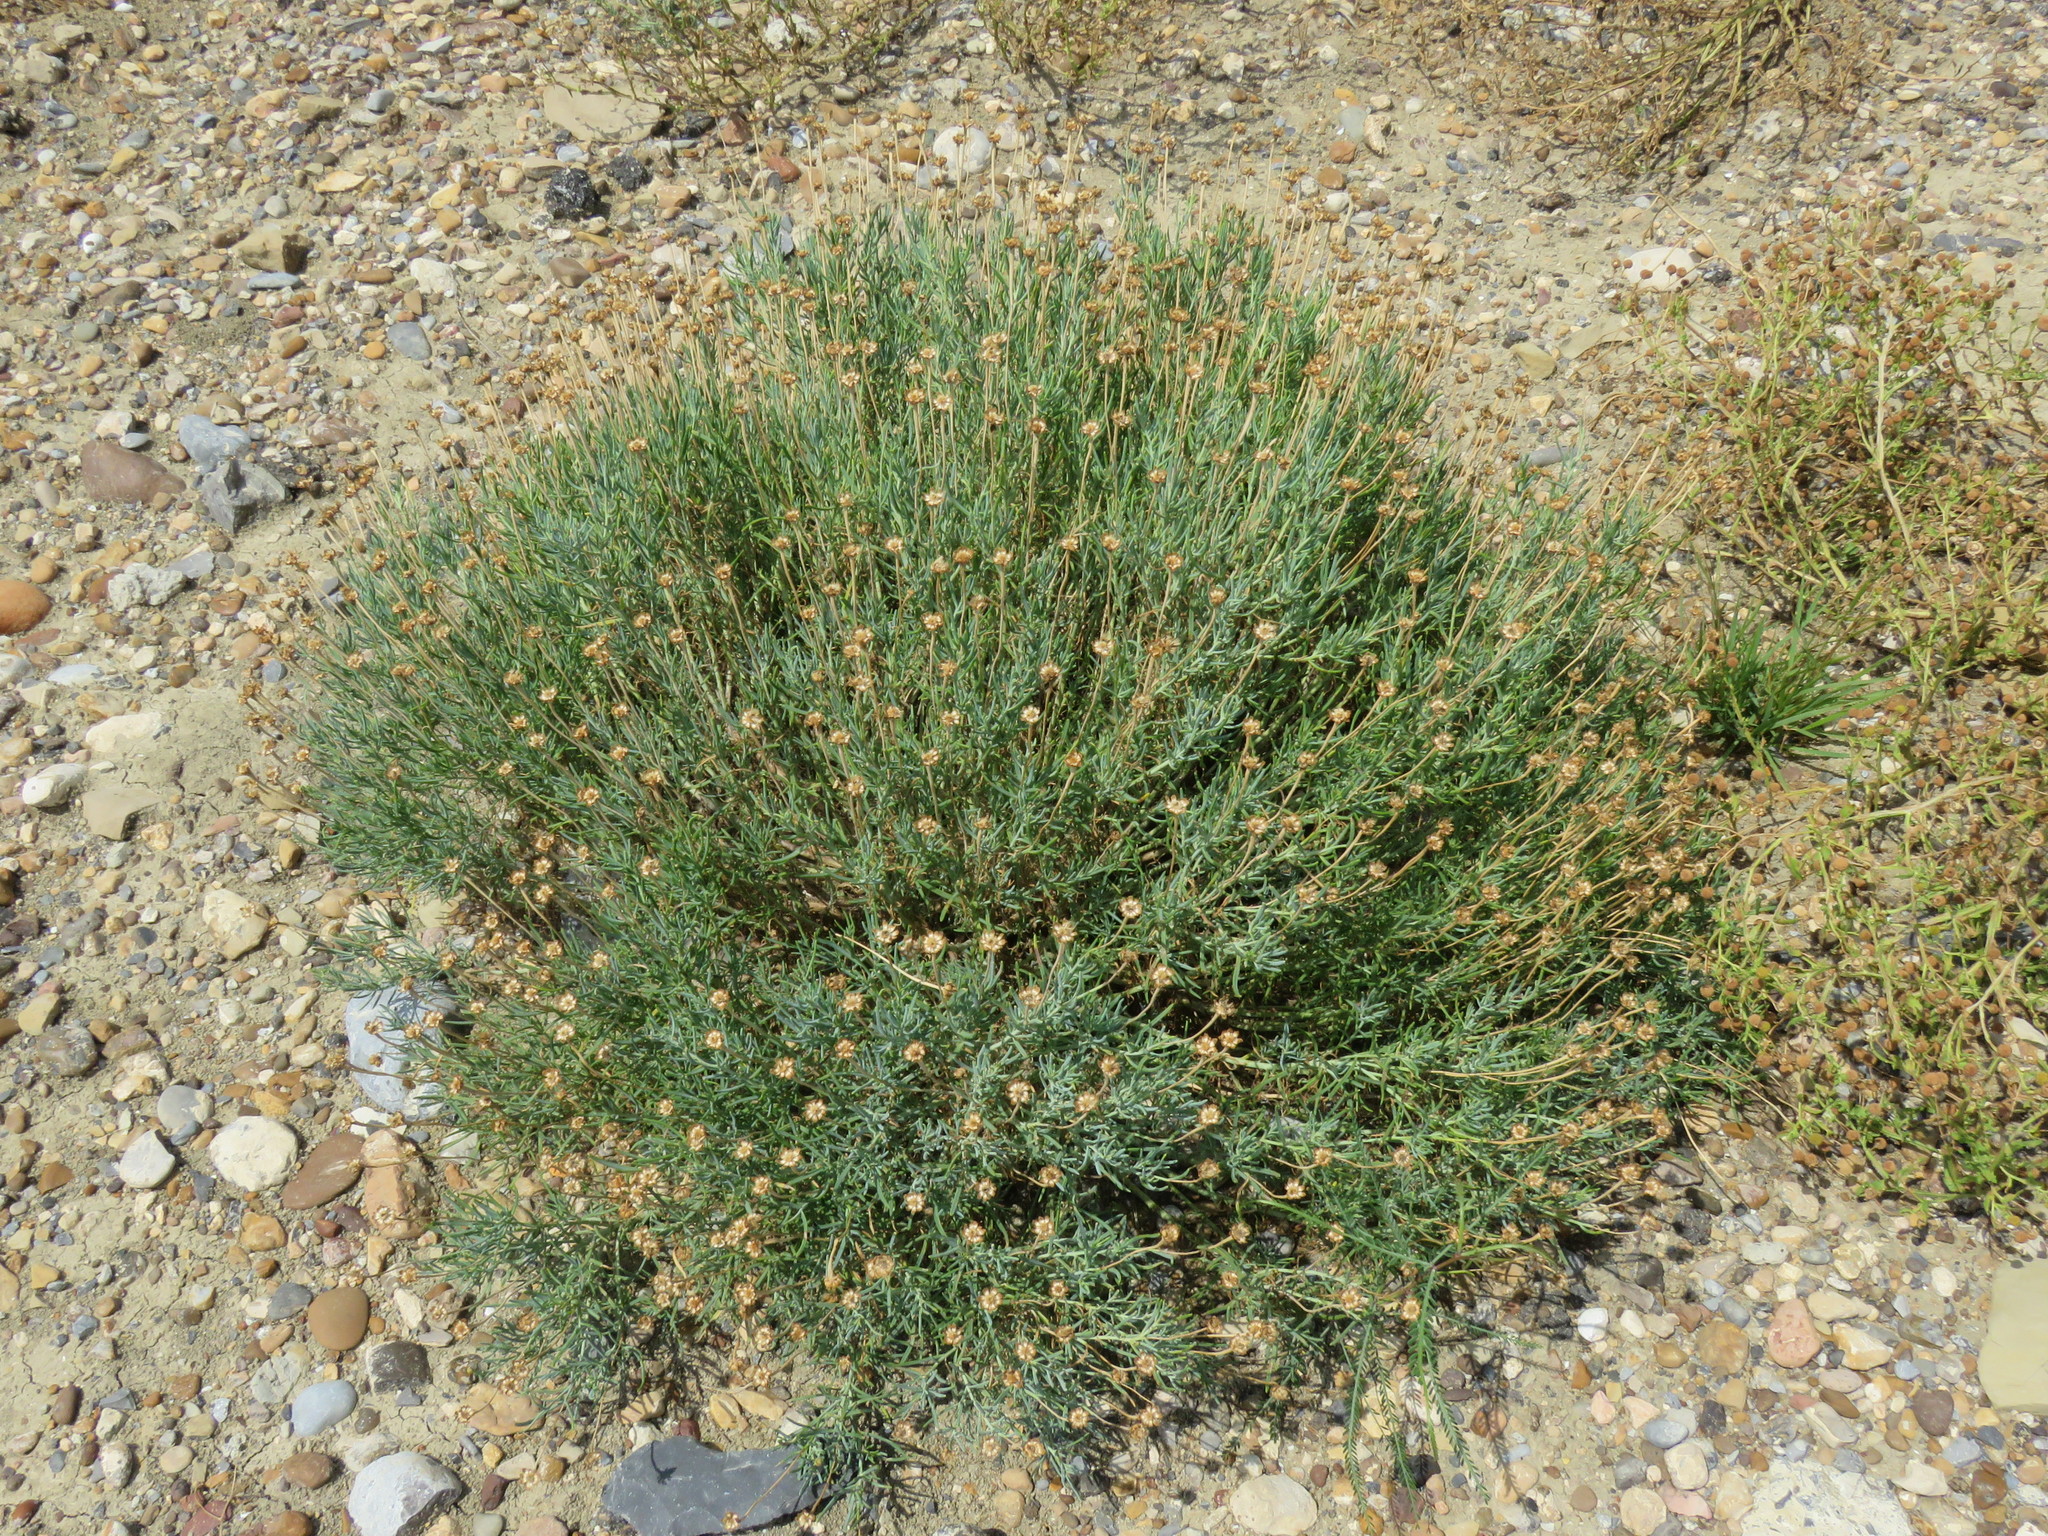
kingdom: Plantae
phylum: Tracheophyta
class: Magnoliopsida
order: Asterales
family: Asteraceae
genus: Clappia
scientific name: Clappia suaedifolia
